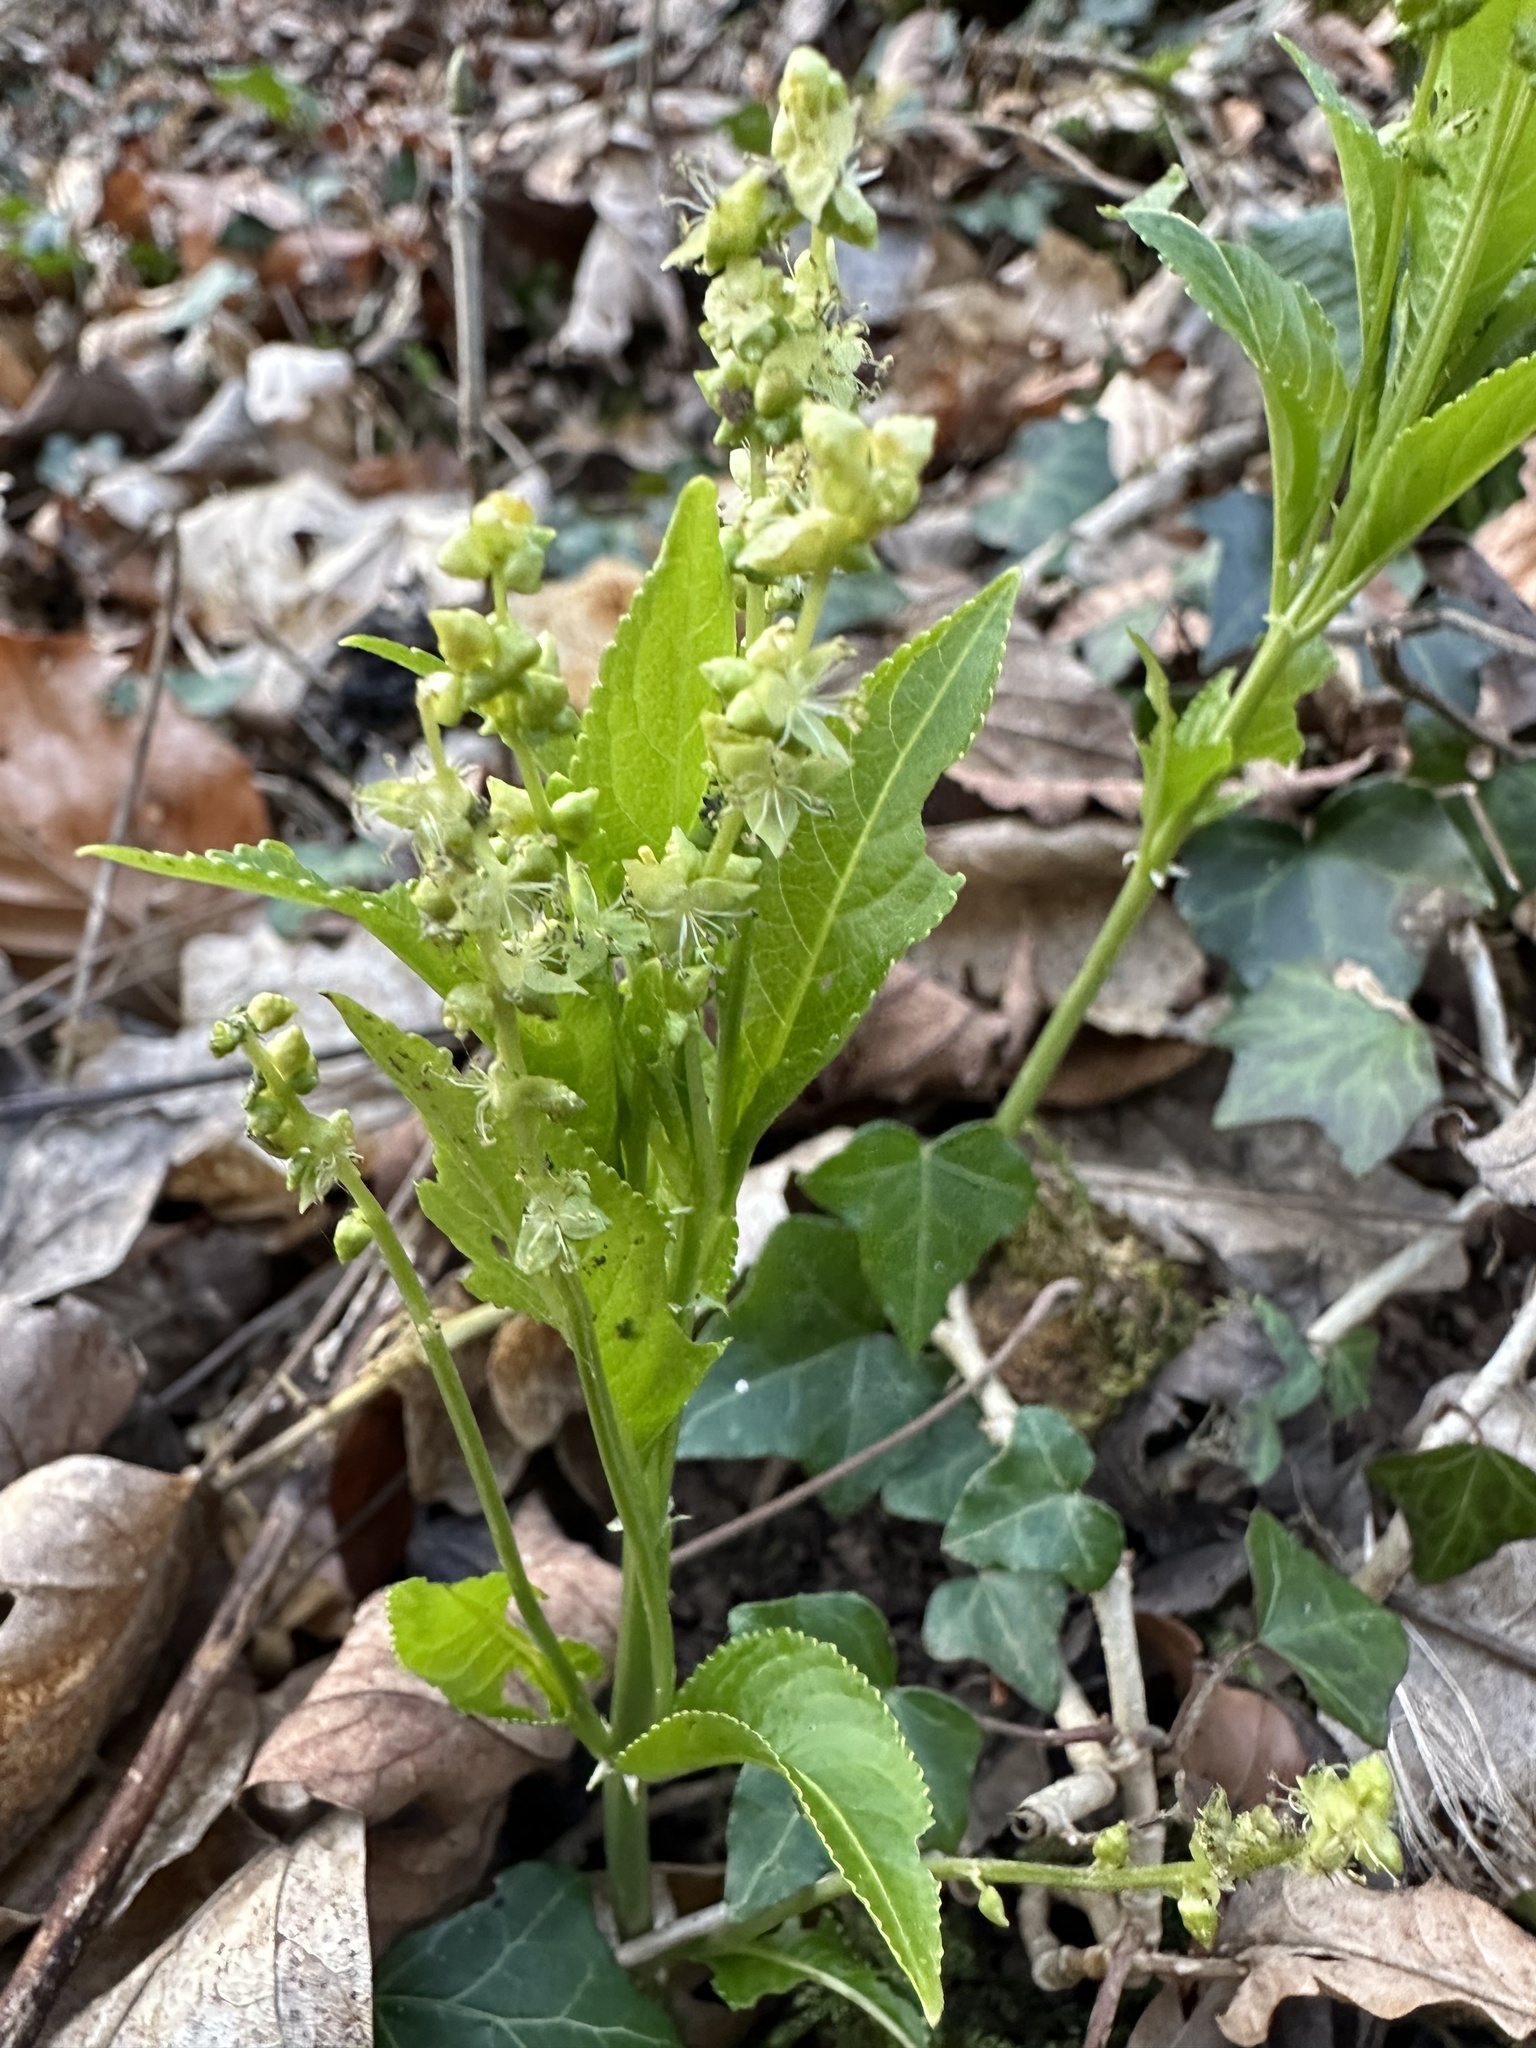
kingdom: Plantae
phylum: Tracheophyta
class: Magnoliopsida
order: Malpighiales
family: Euphorbiaceae
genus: Mercurialis
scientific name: Mercurialis perennis
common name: Dog mercury
